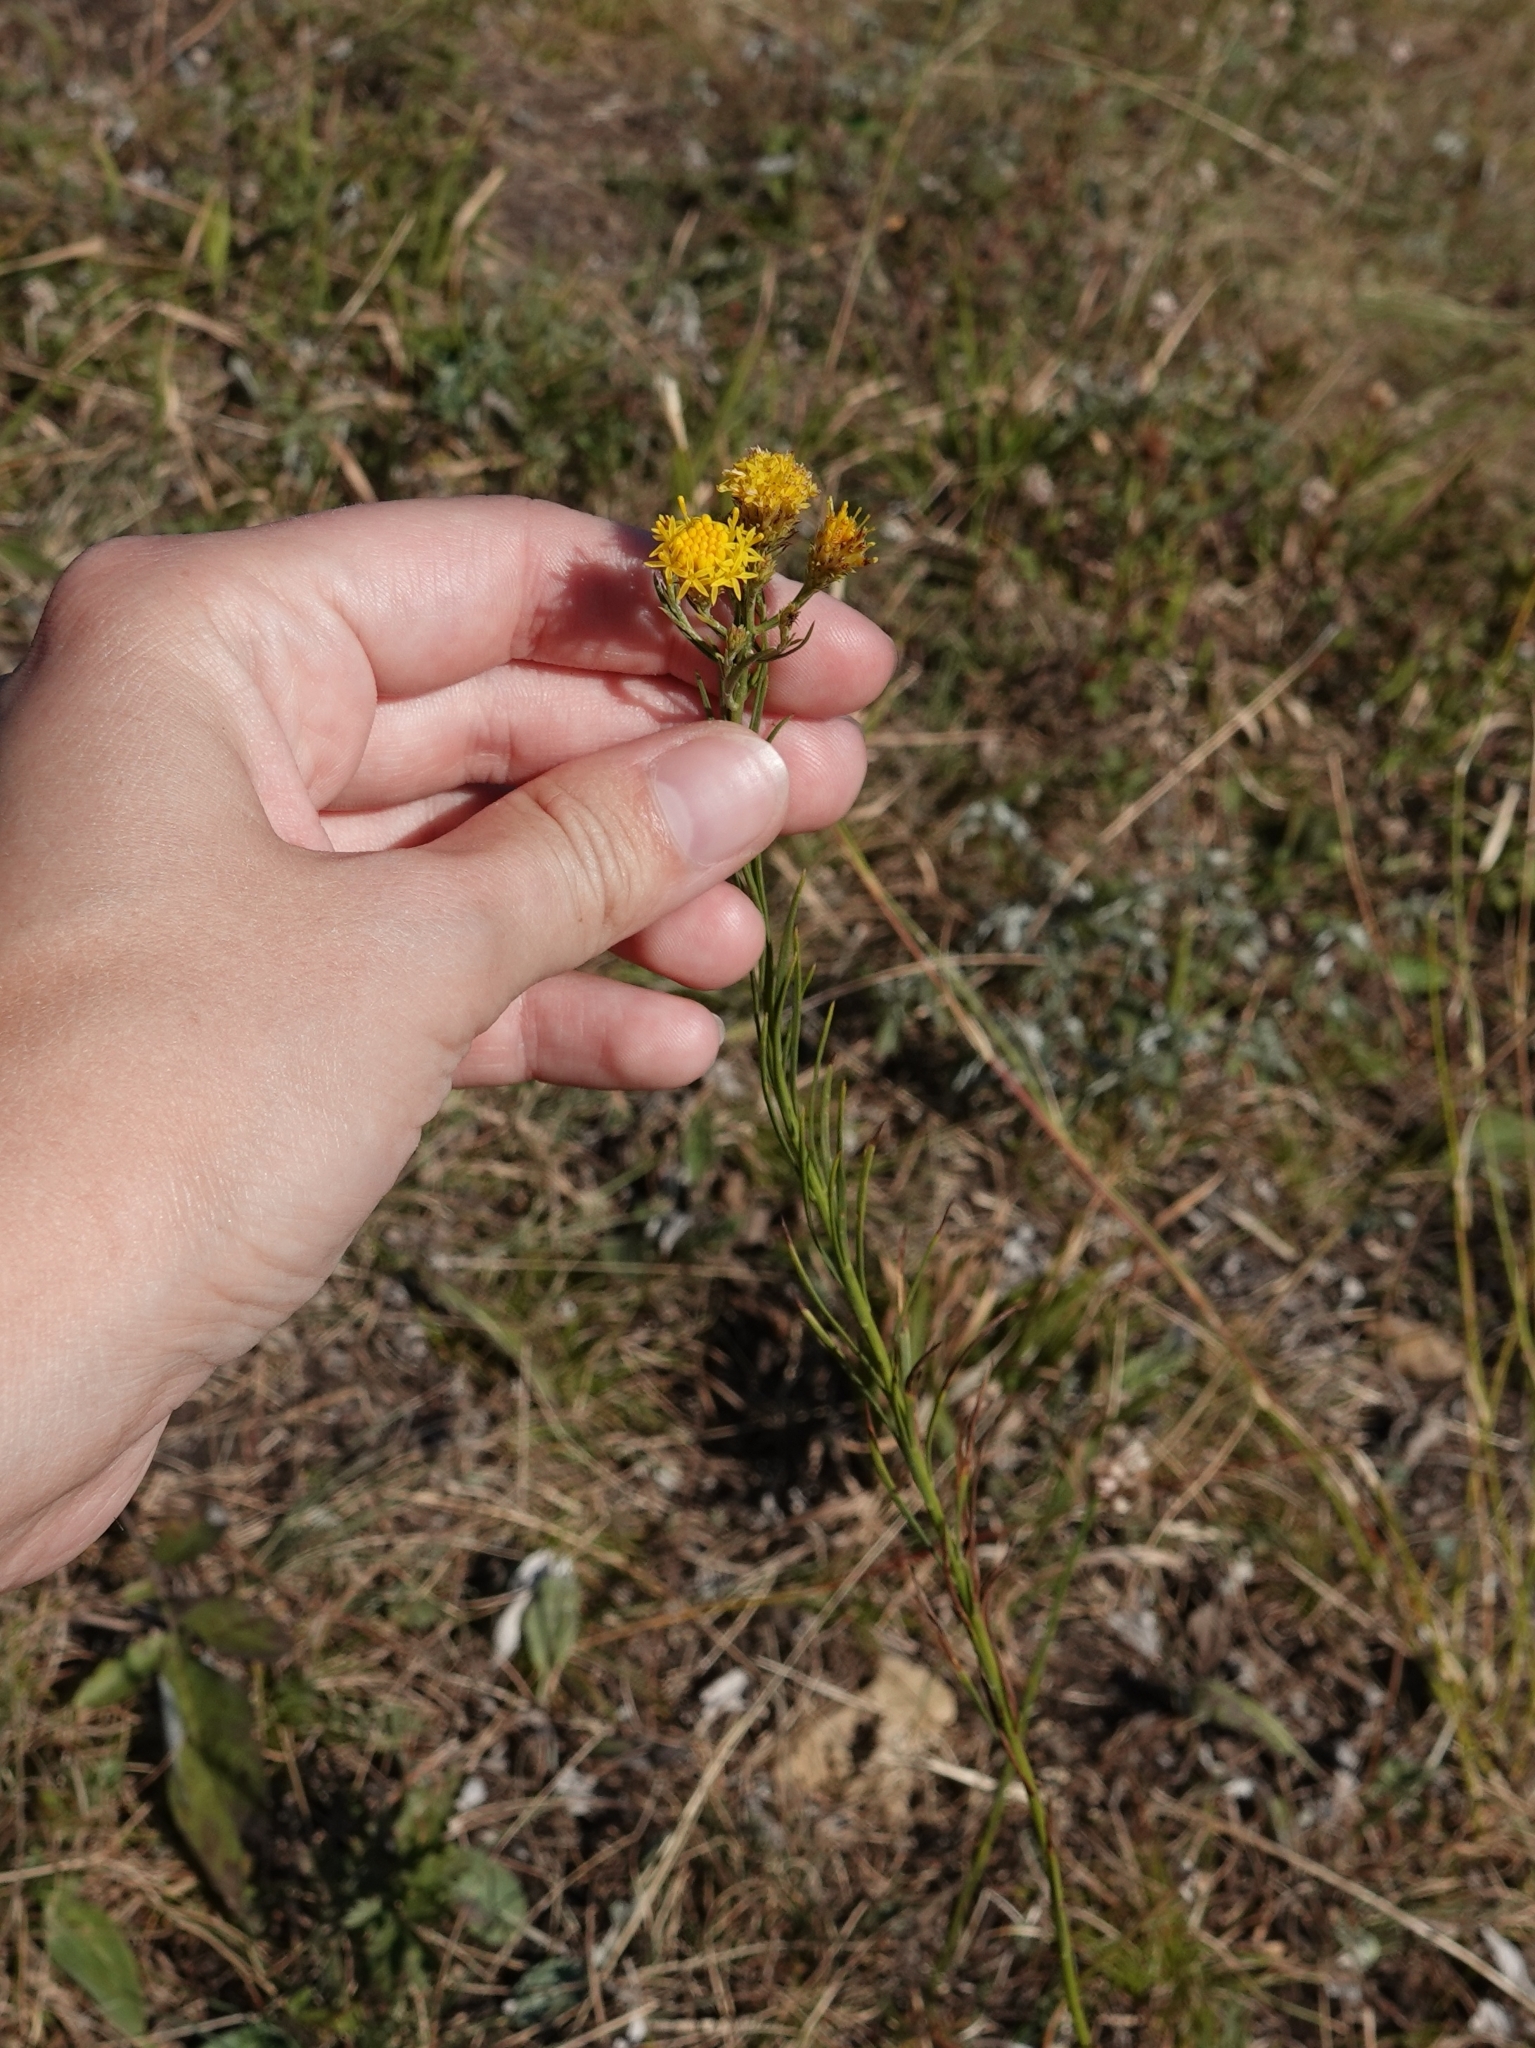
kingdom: Plantae
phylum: Tracheophyta
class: Magnoliopsida
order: Asterales
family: Asteraceae
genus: Galatella
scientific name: Galatella linosyris
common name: Goldilocks aster
